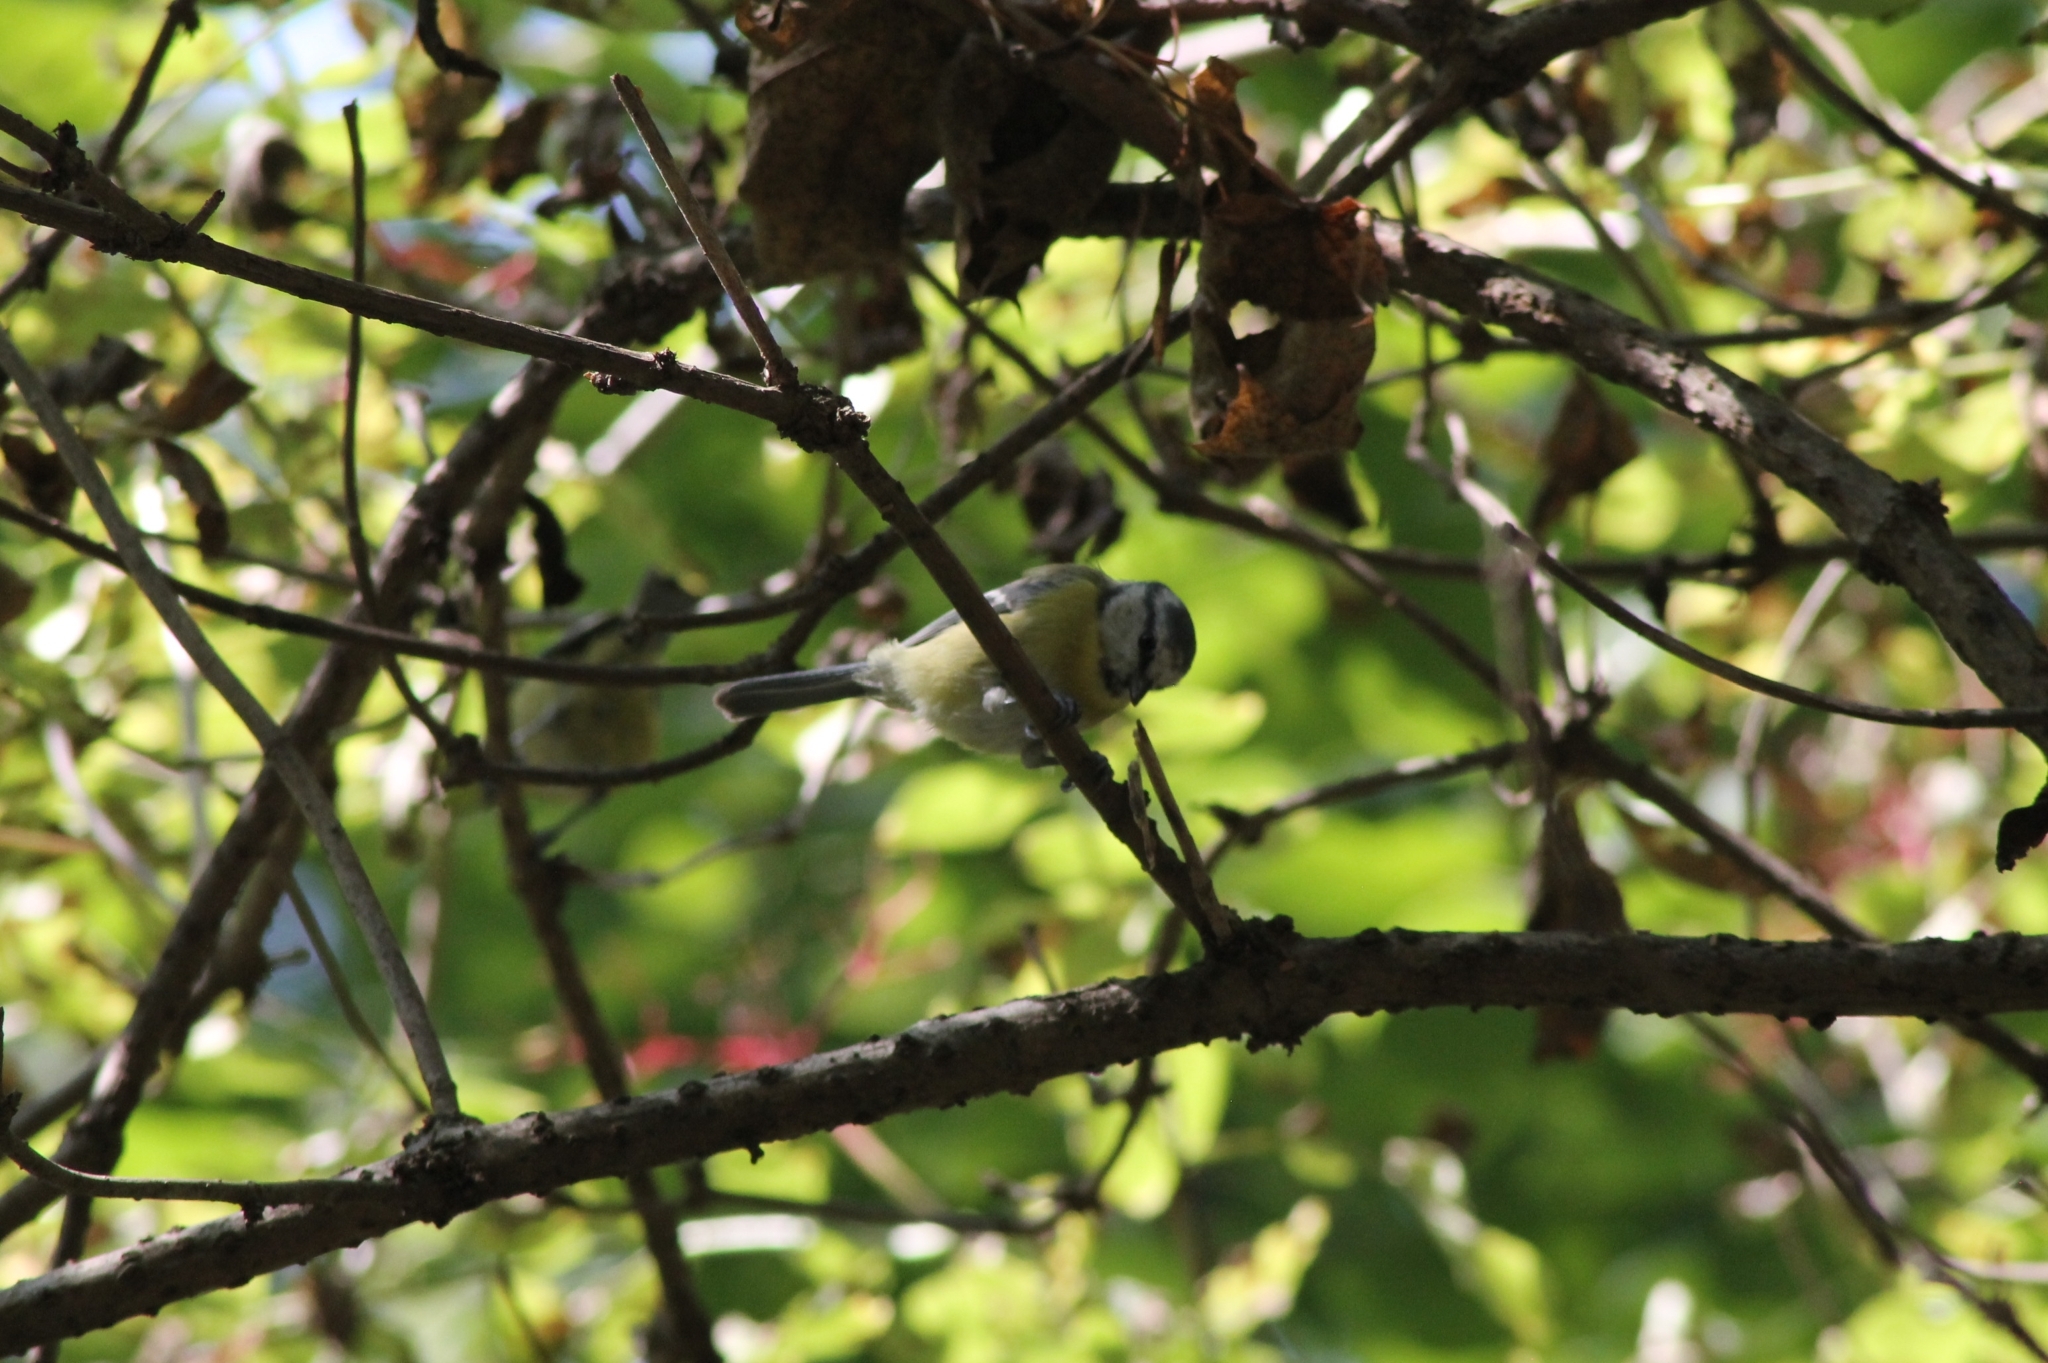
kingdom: Animalia
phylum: Chordata
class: Aves
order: Passeriformes
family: Paridae
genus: Cyanistes
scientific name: Cyanistes caeruleus
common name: Eurasian blue tit
